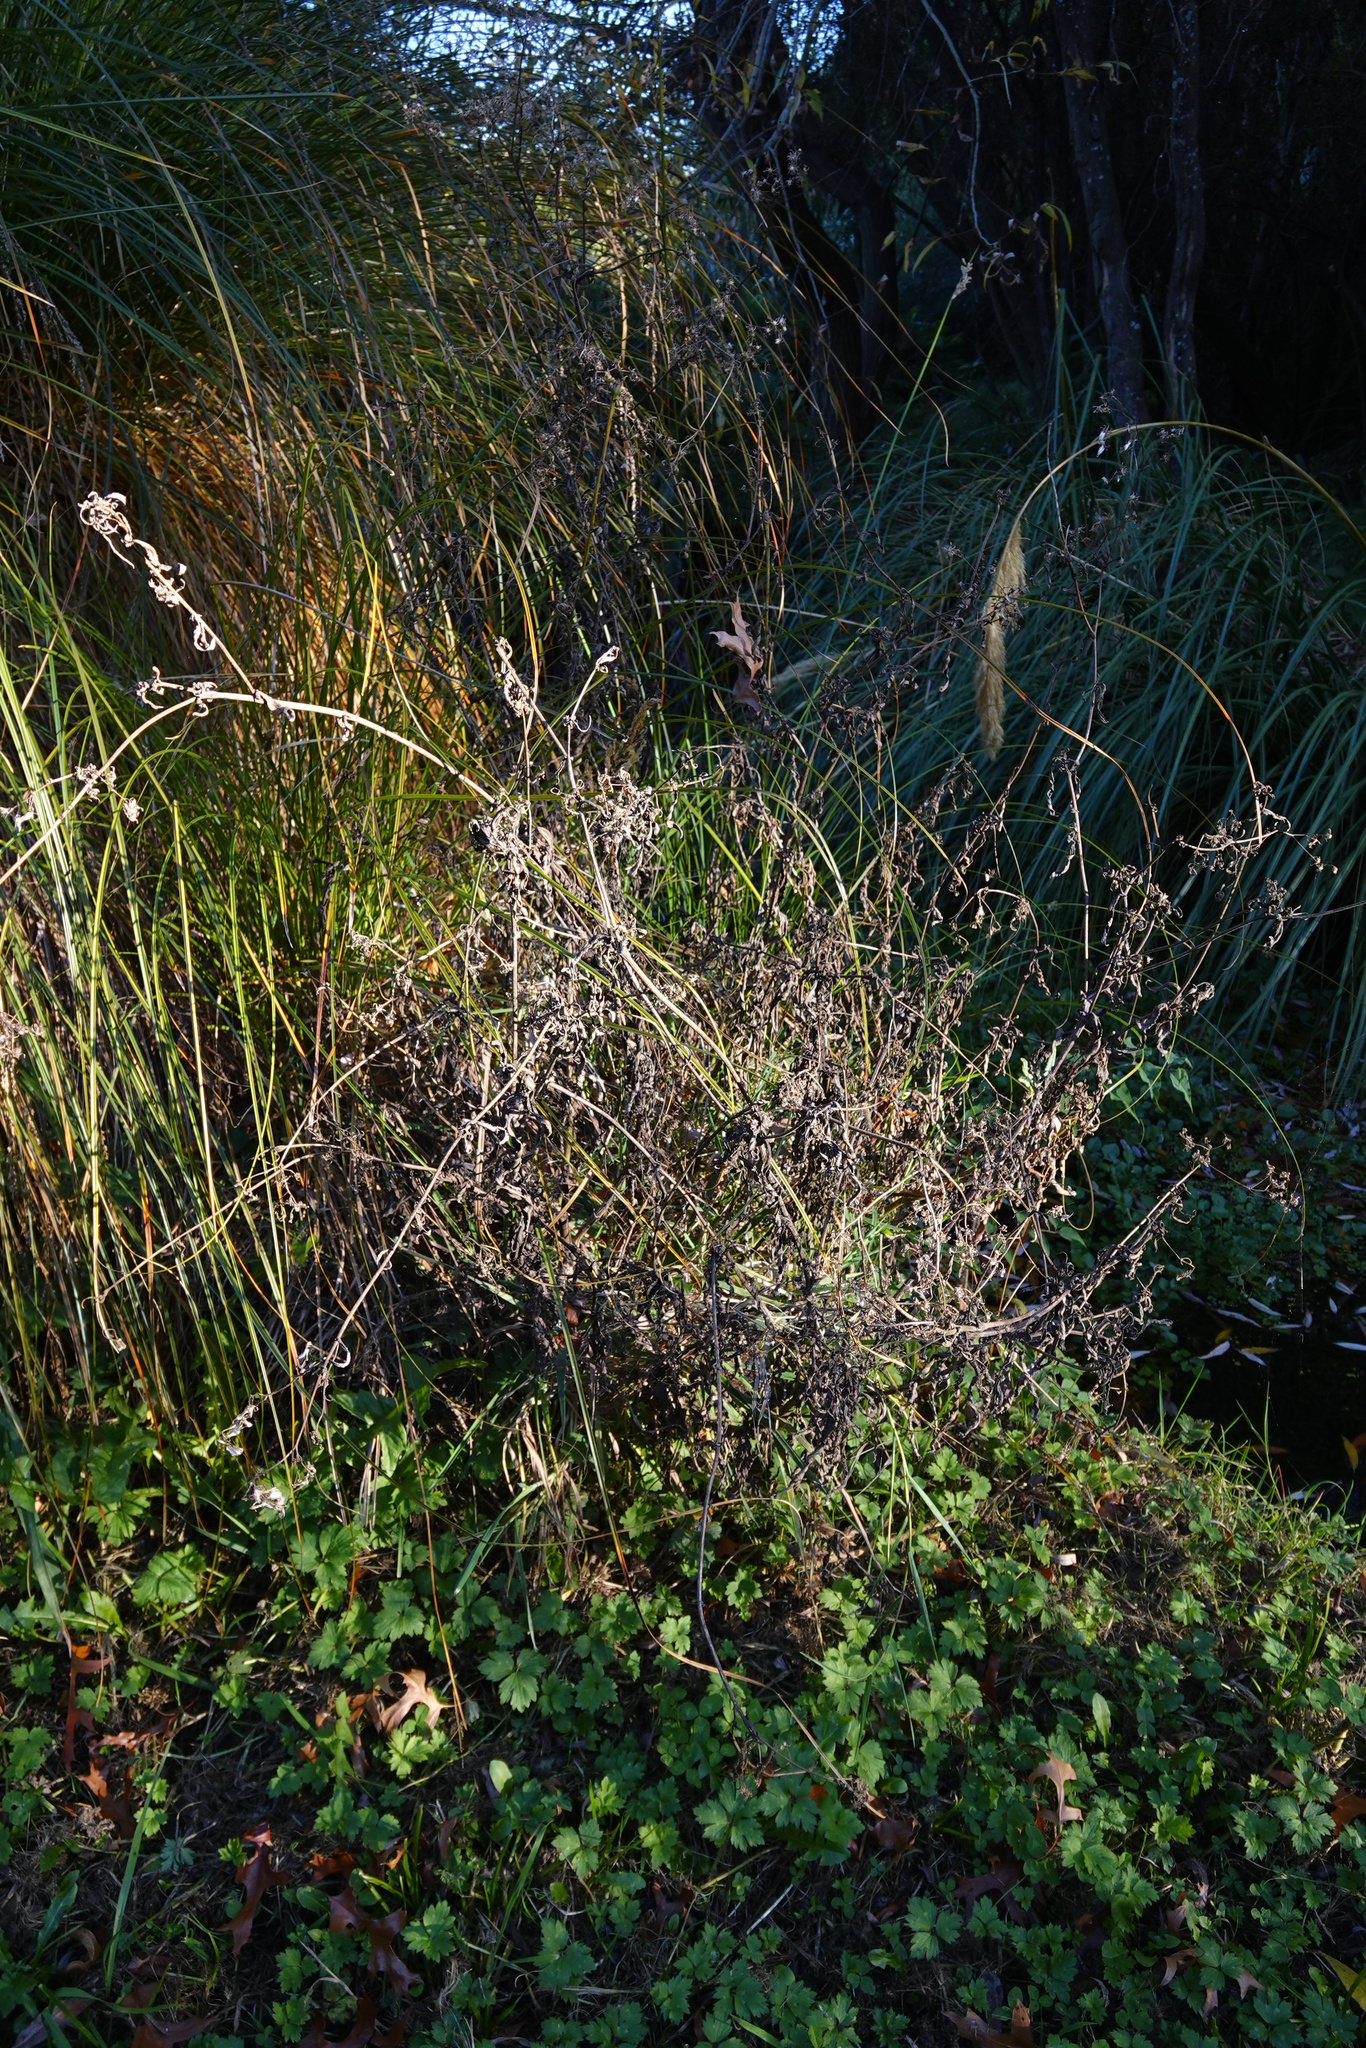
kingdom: Plantae
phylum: Tracheophyta
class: Magnoliopsida
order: Asterales
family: Asteraceae
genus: Senecio
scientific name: Senecio minimus
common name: Toothed fireweed
